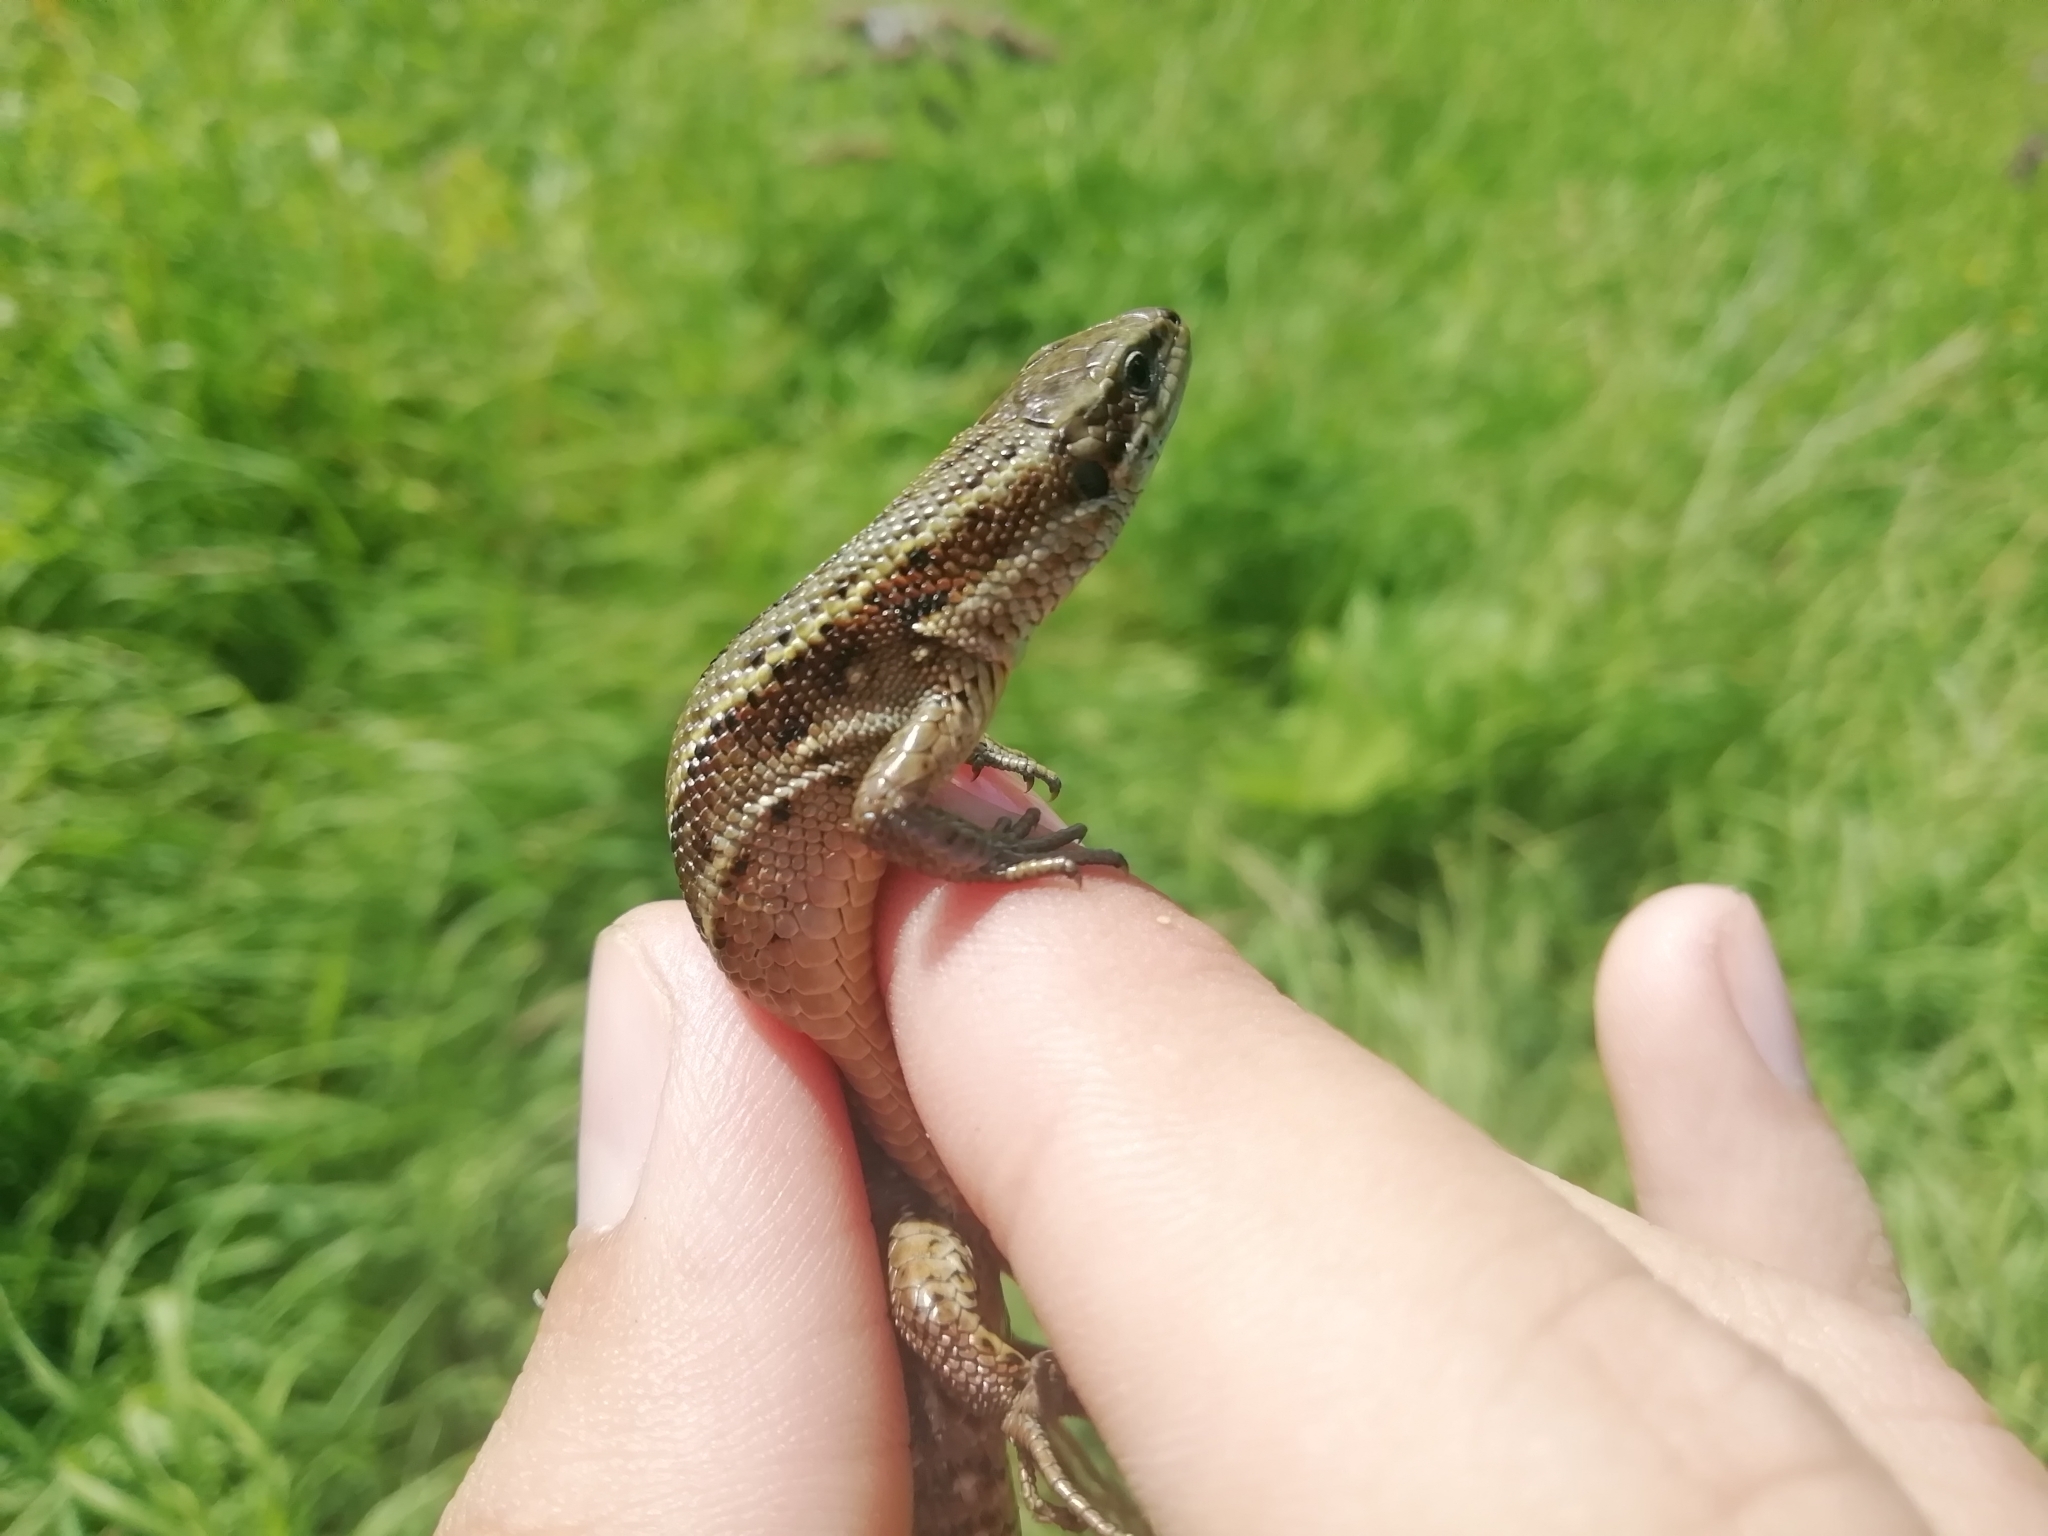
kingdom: Animalia
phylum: Chordata
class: Squamata
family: Lacertidae
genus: Zootoca
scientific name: Zootoca vivipara
